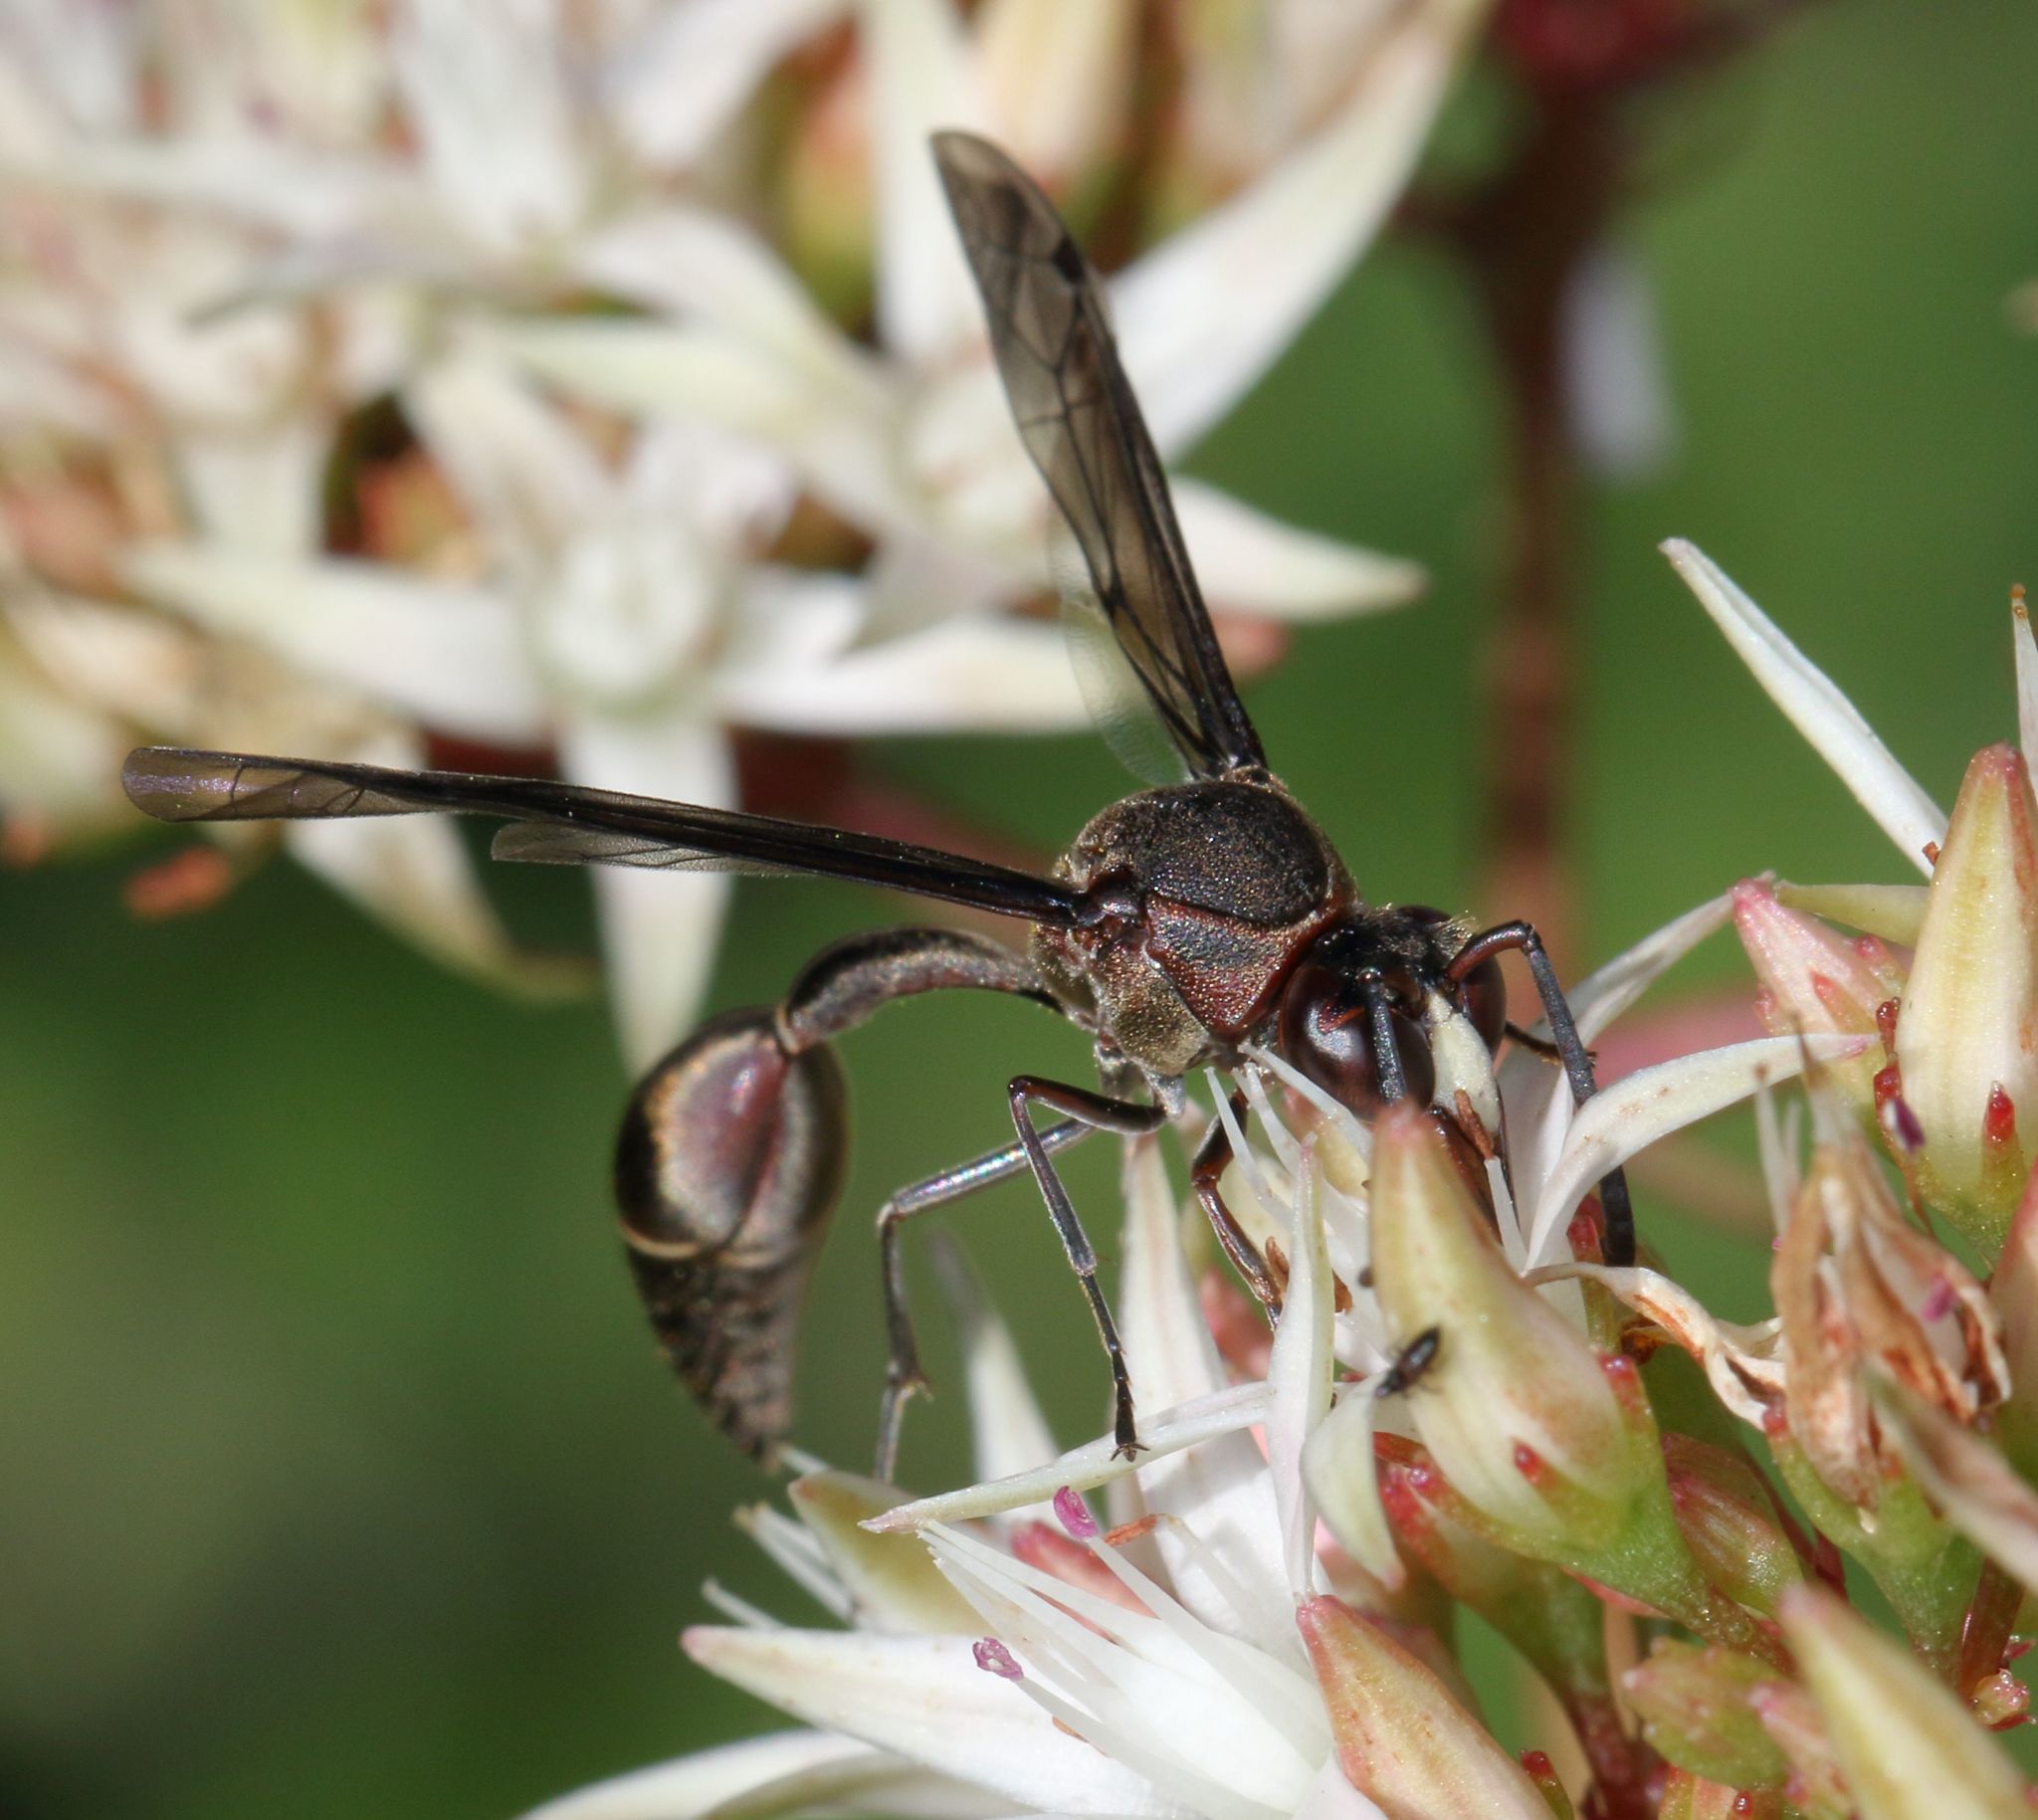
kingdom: Animalia
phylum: Arthropoda
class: Insecta
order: Hymenoptera
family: Eumenidae
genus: Afreumenes
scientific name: Afreumenes
